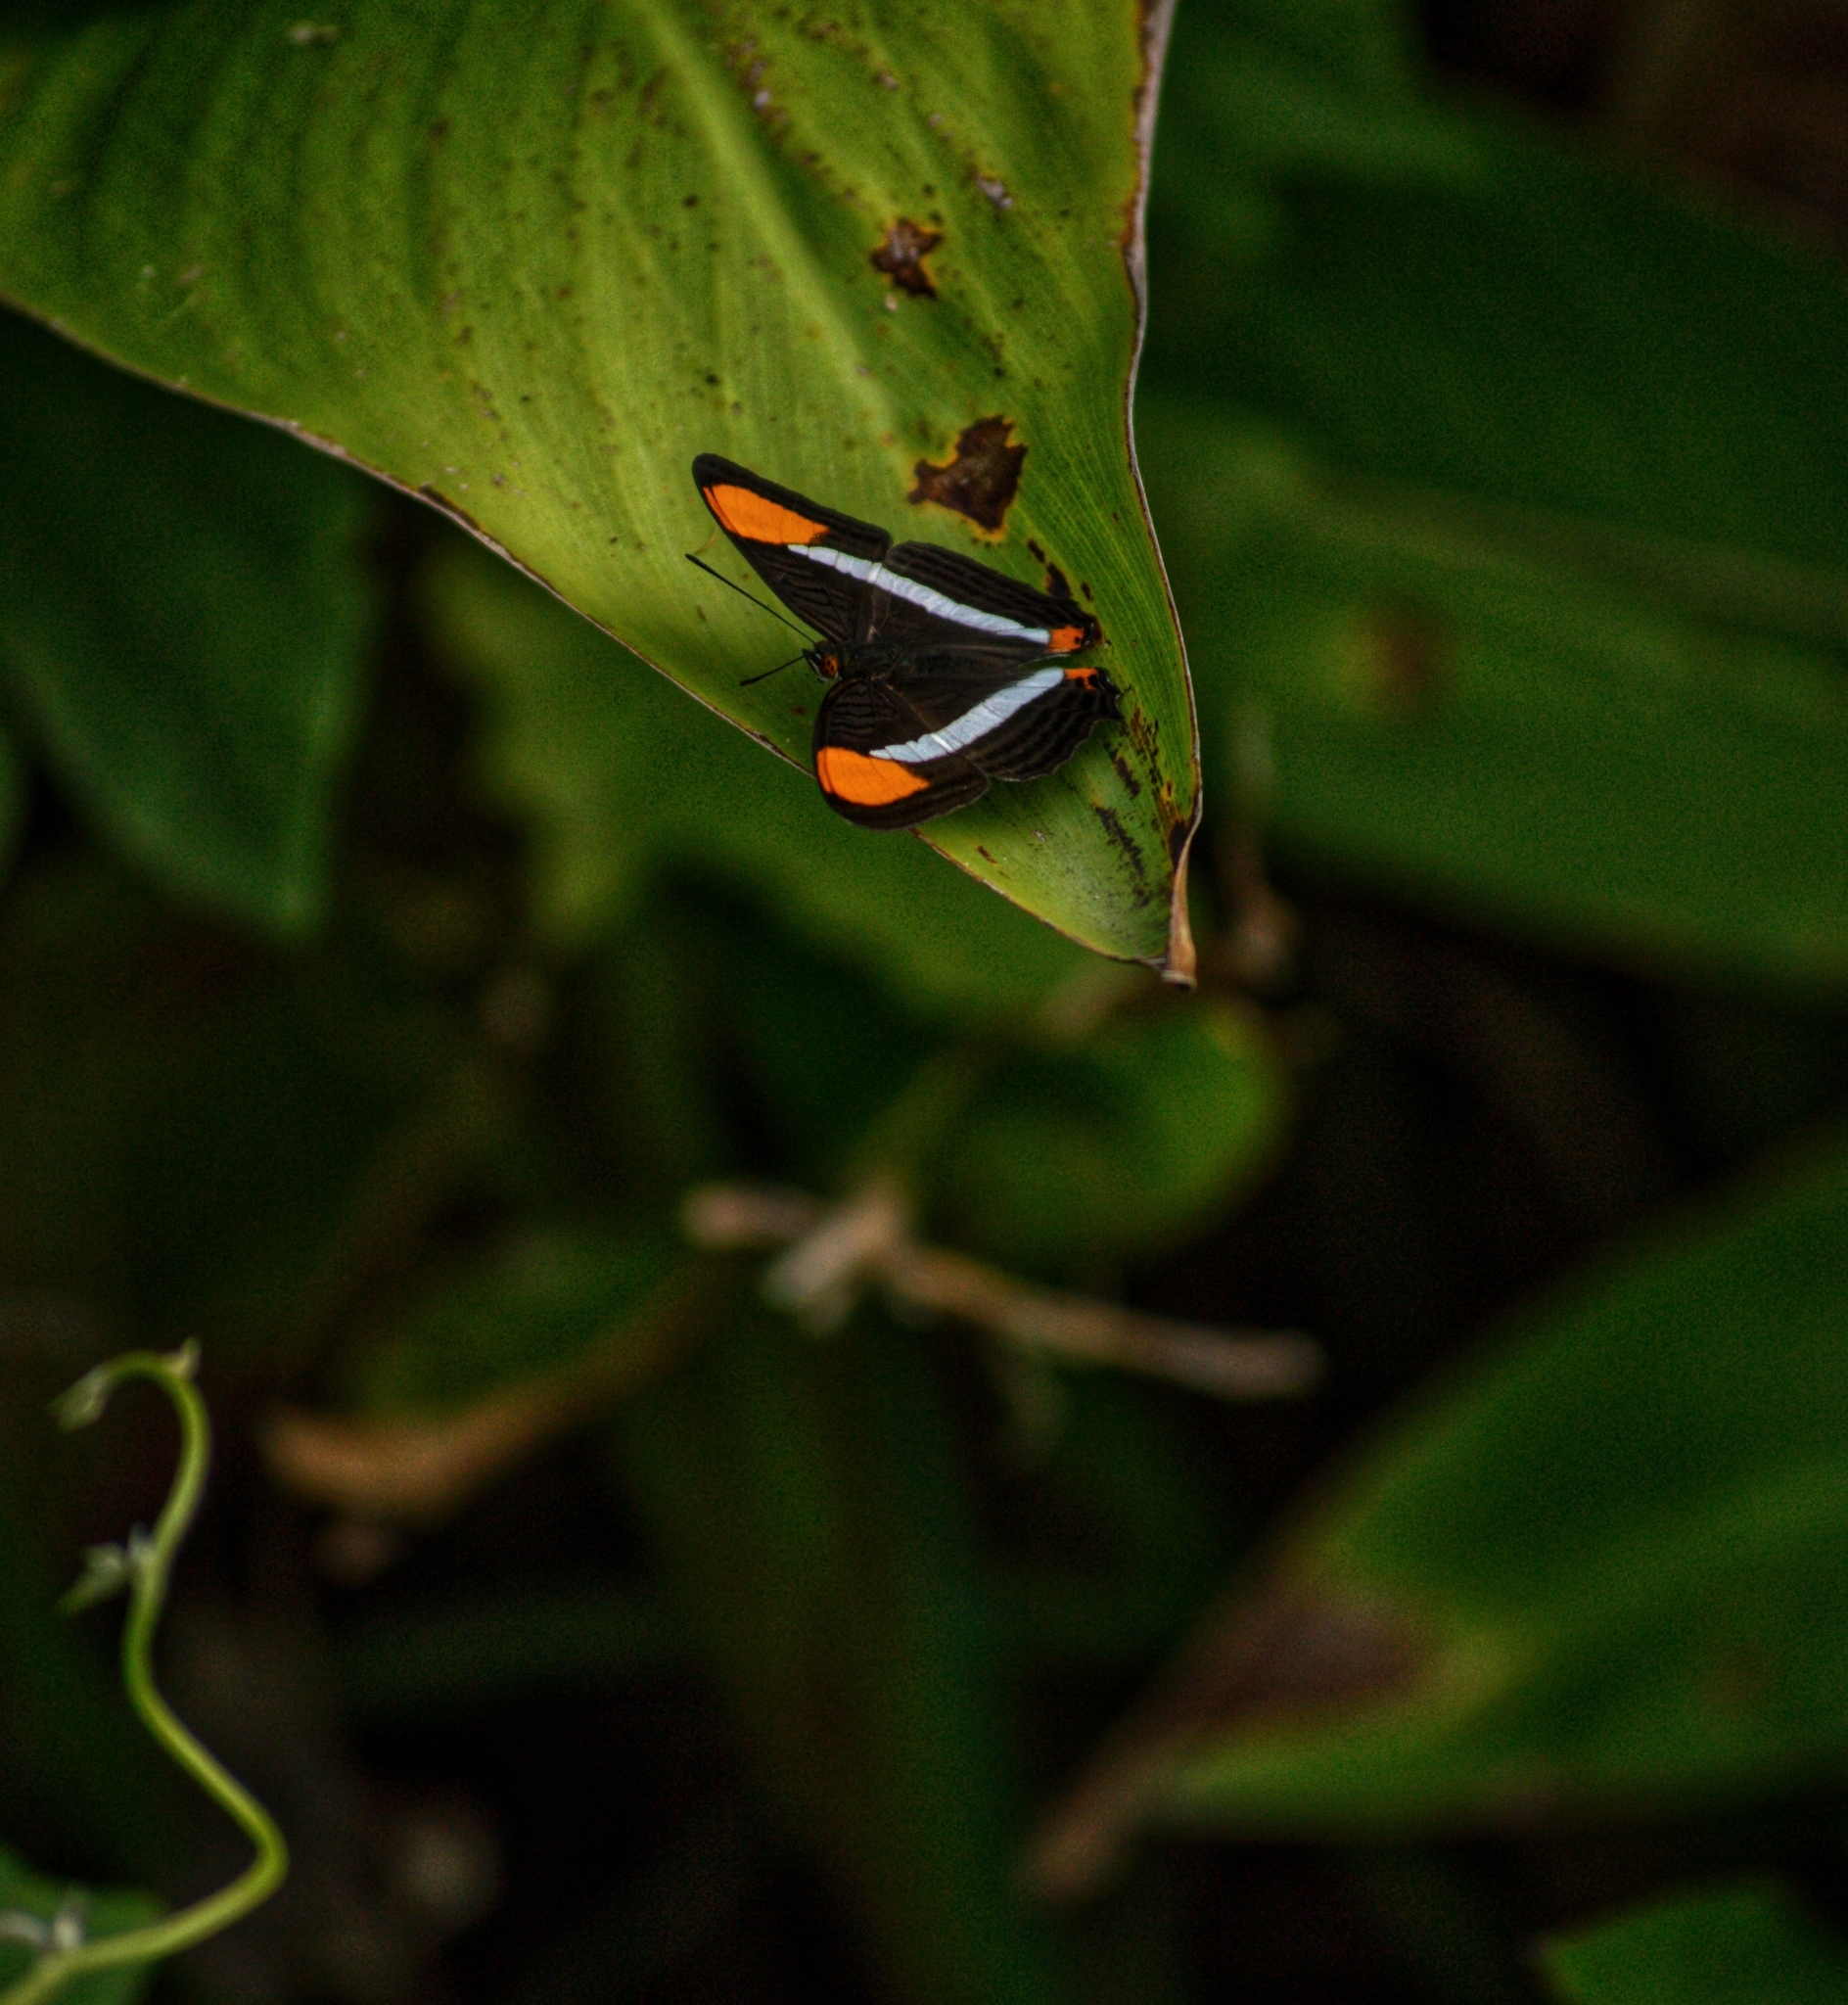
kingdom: Animalia
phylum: Arthropoda
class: Insecta
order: Lepidoptera
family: Nymphalidae
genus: Limenitis
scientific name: Limenitis syma
